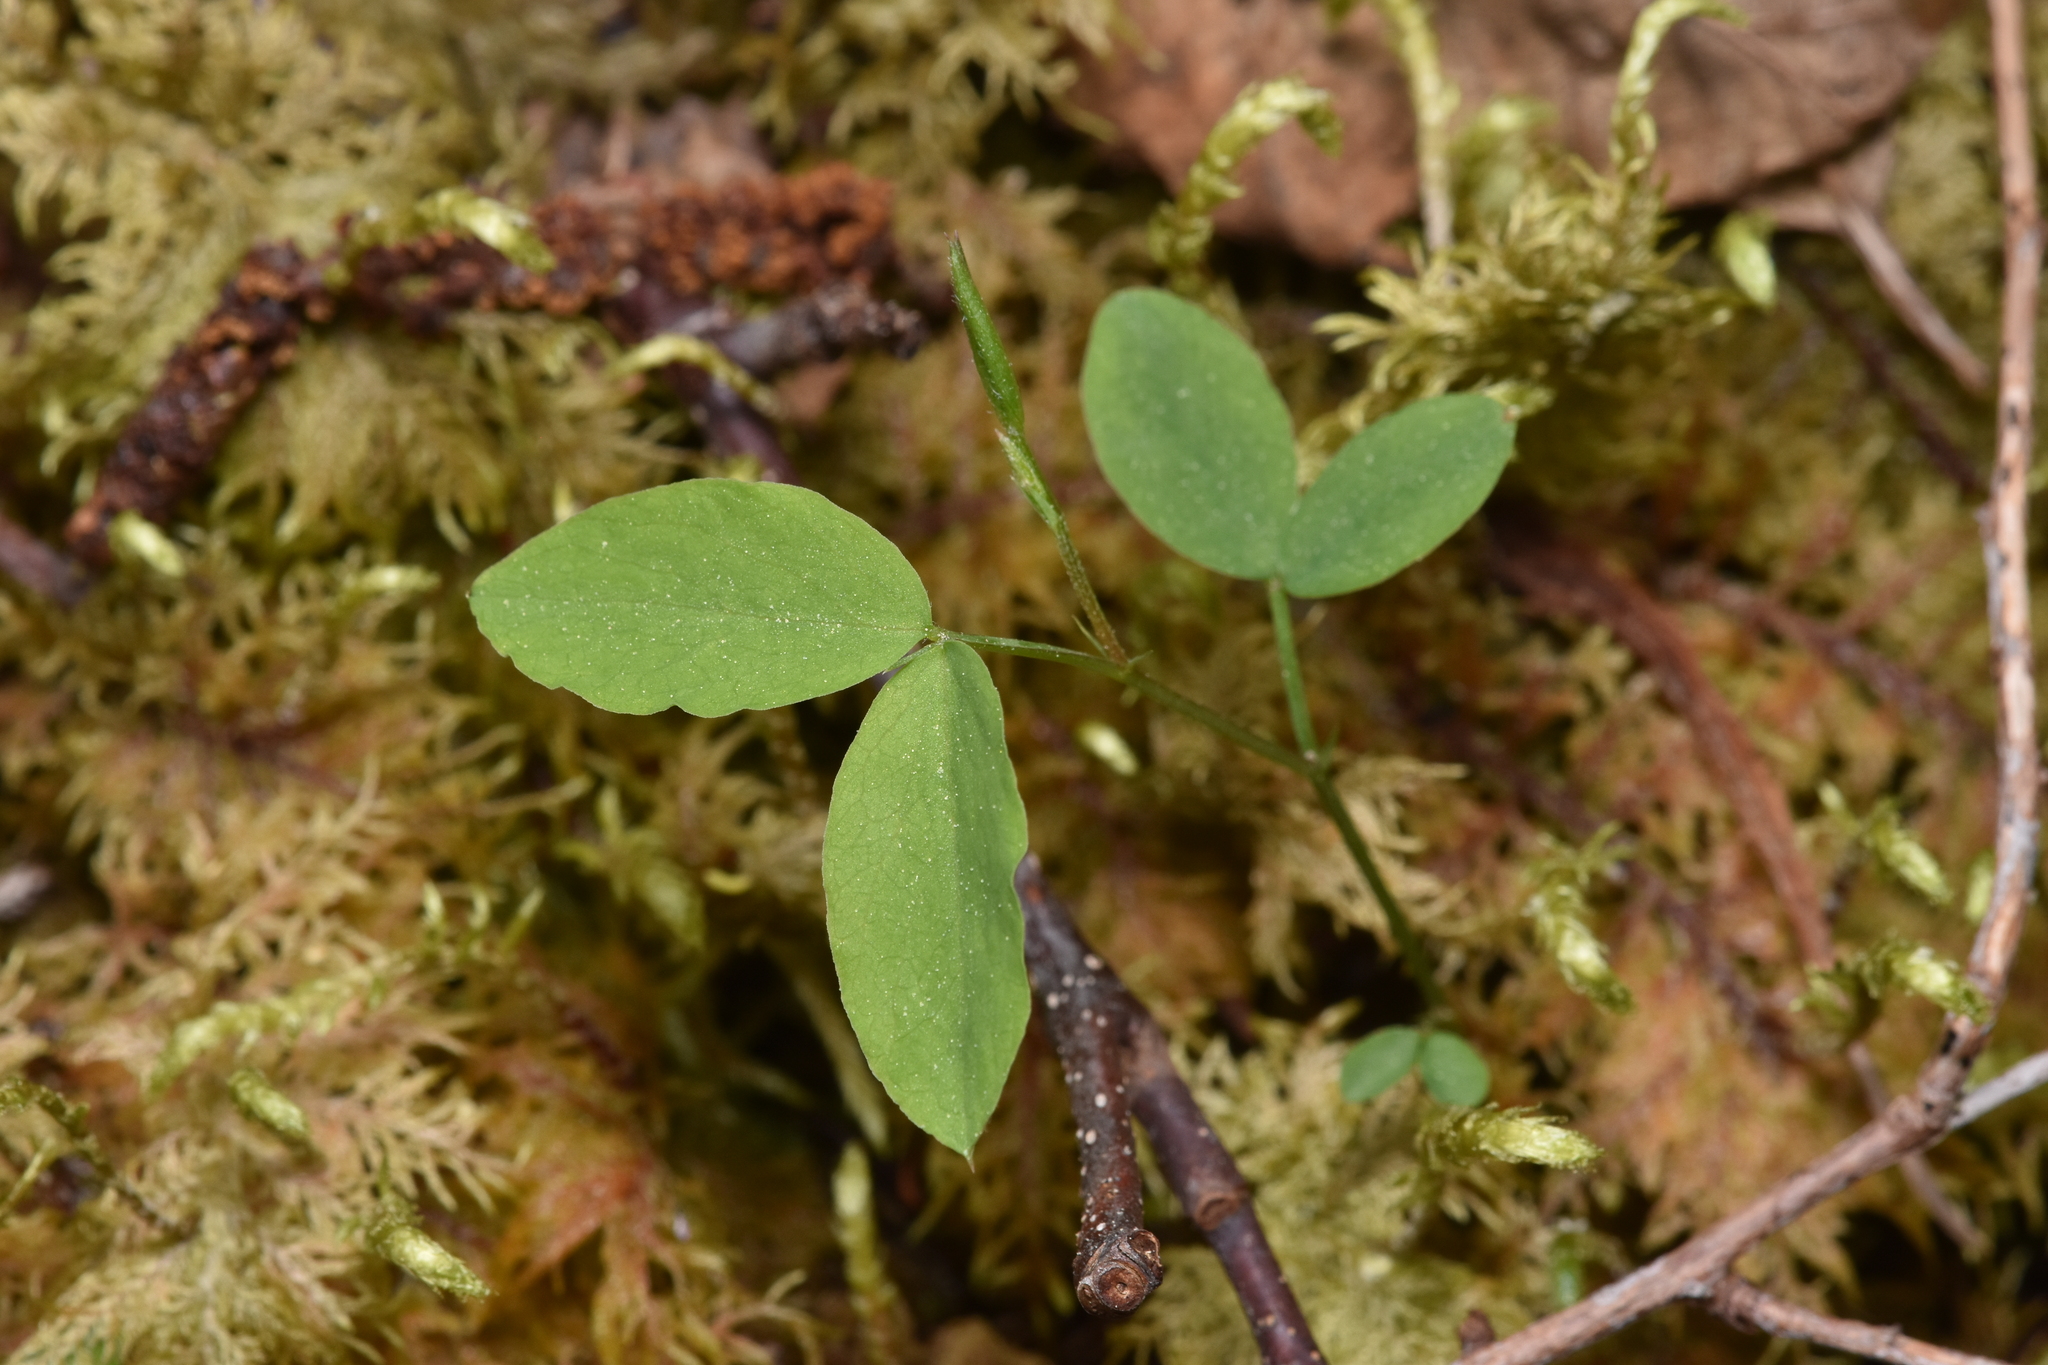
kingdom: Plantae
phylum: Tracheophyta
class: Magnoliopsida
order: Dipsacales
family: Caprifoliaceae
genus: Lonicera
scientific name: Lonicera ciliosa
